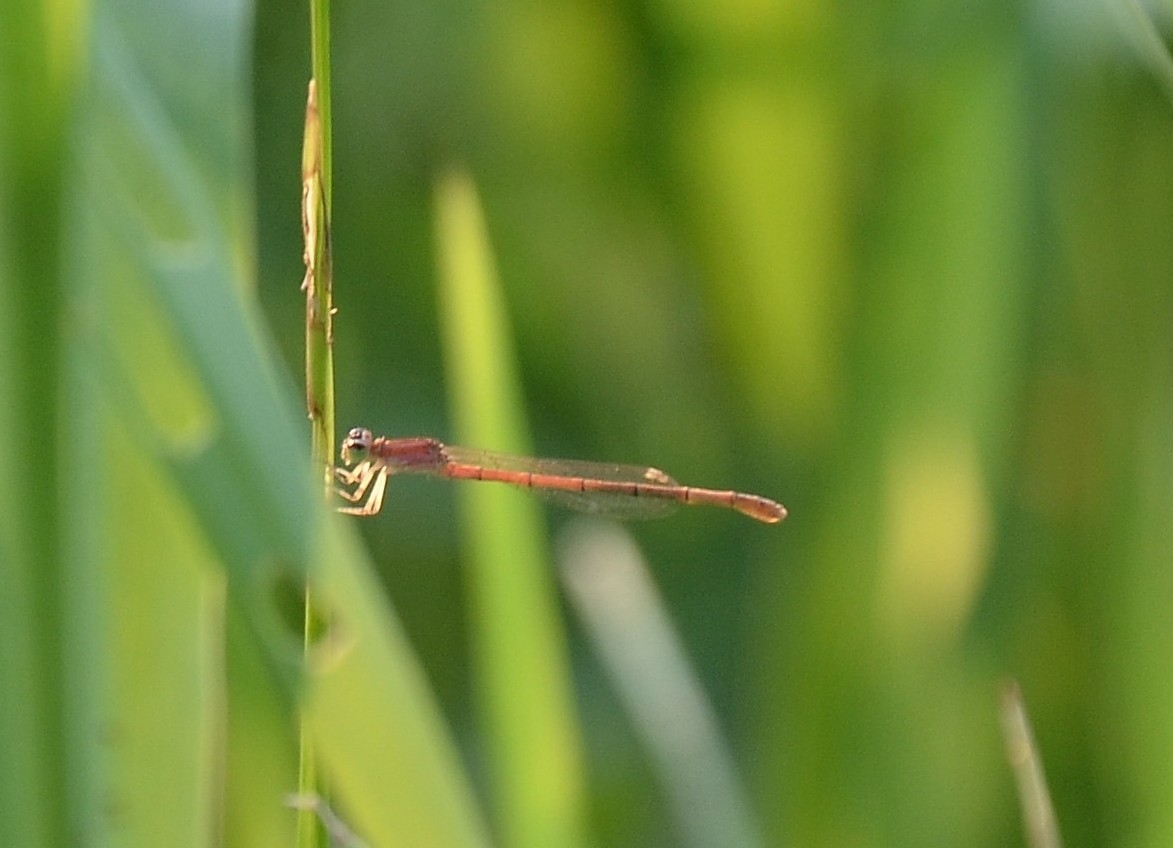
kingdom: Animalia
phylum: Arthropoda
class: Insecta
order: Odonata
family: Coenagrionidae
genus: Agriocnemis
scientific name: Agriocnemis keralensis
